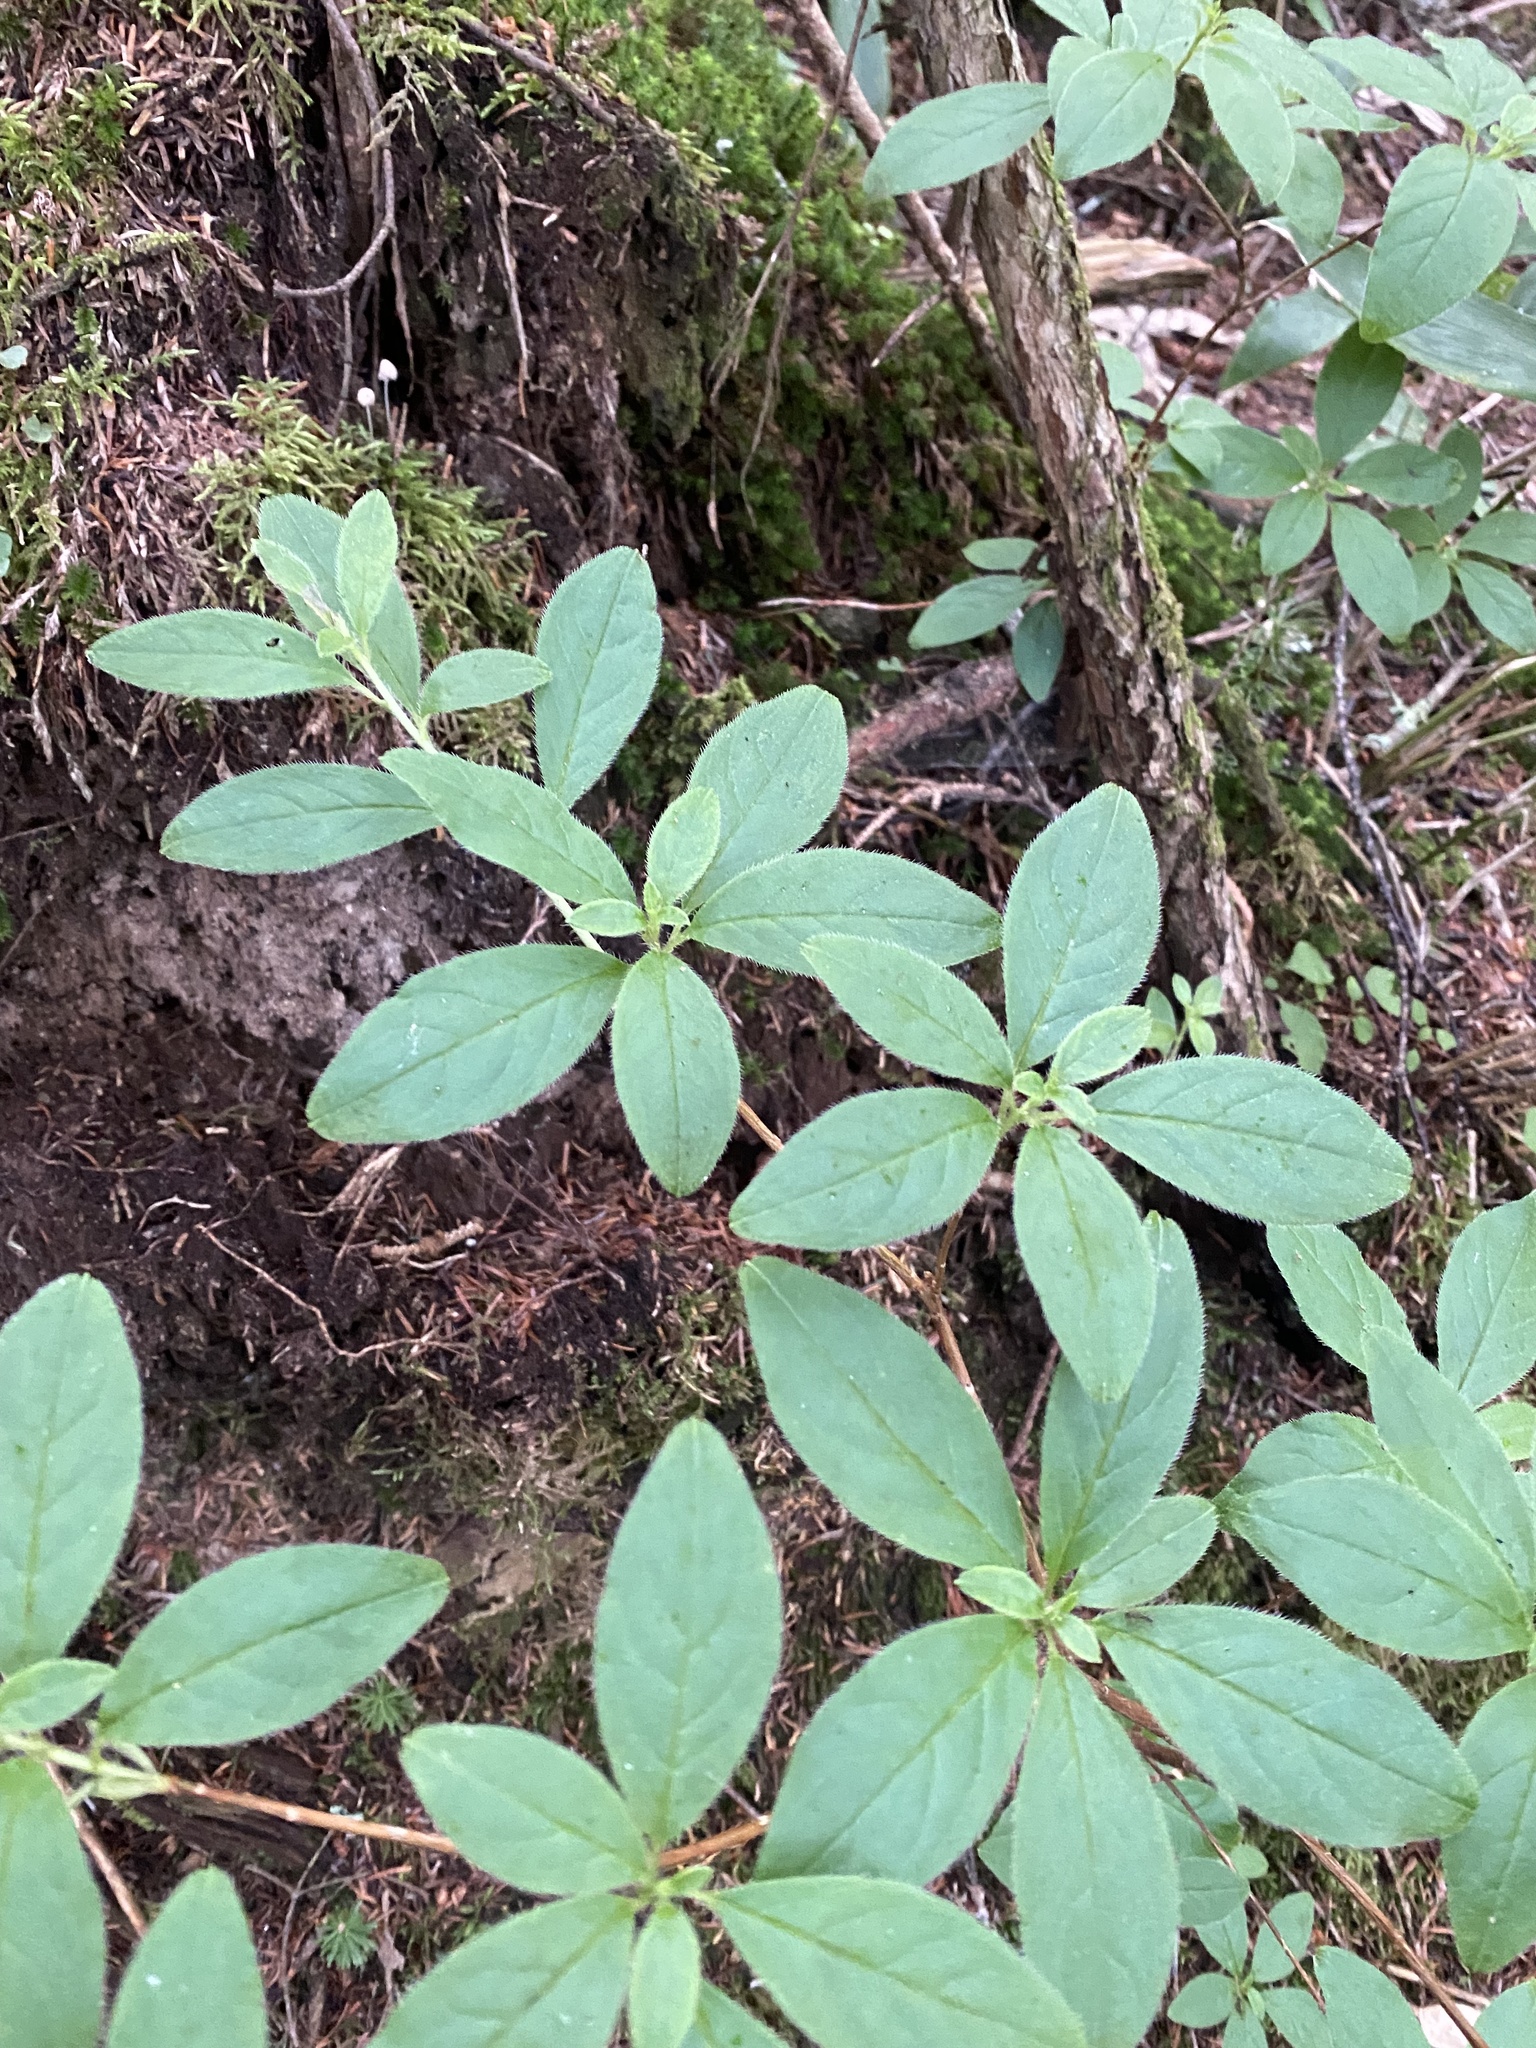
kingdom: Plantae
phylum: Tracheophyta
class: Magnoliopsida
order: Ericales
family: Ericaceae
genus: Rhododendron
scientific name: Rhododendron pentandrum
